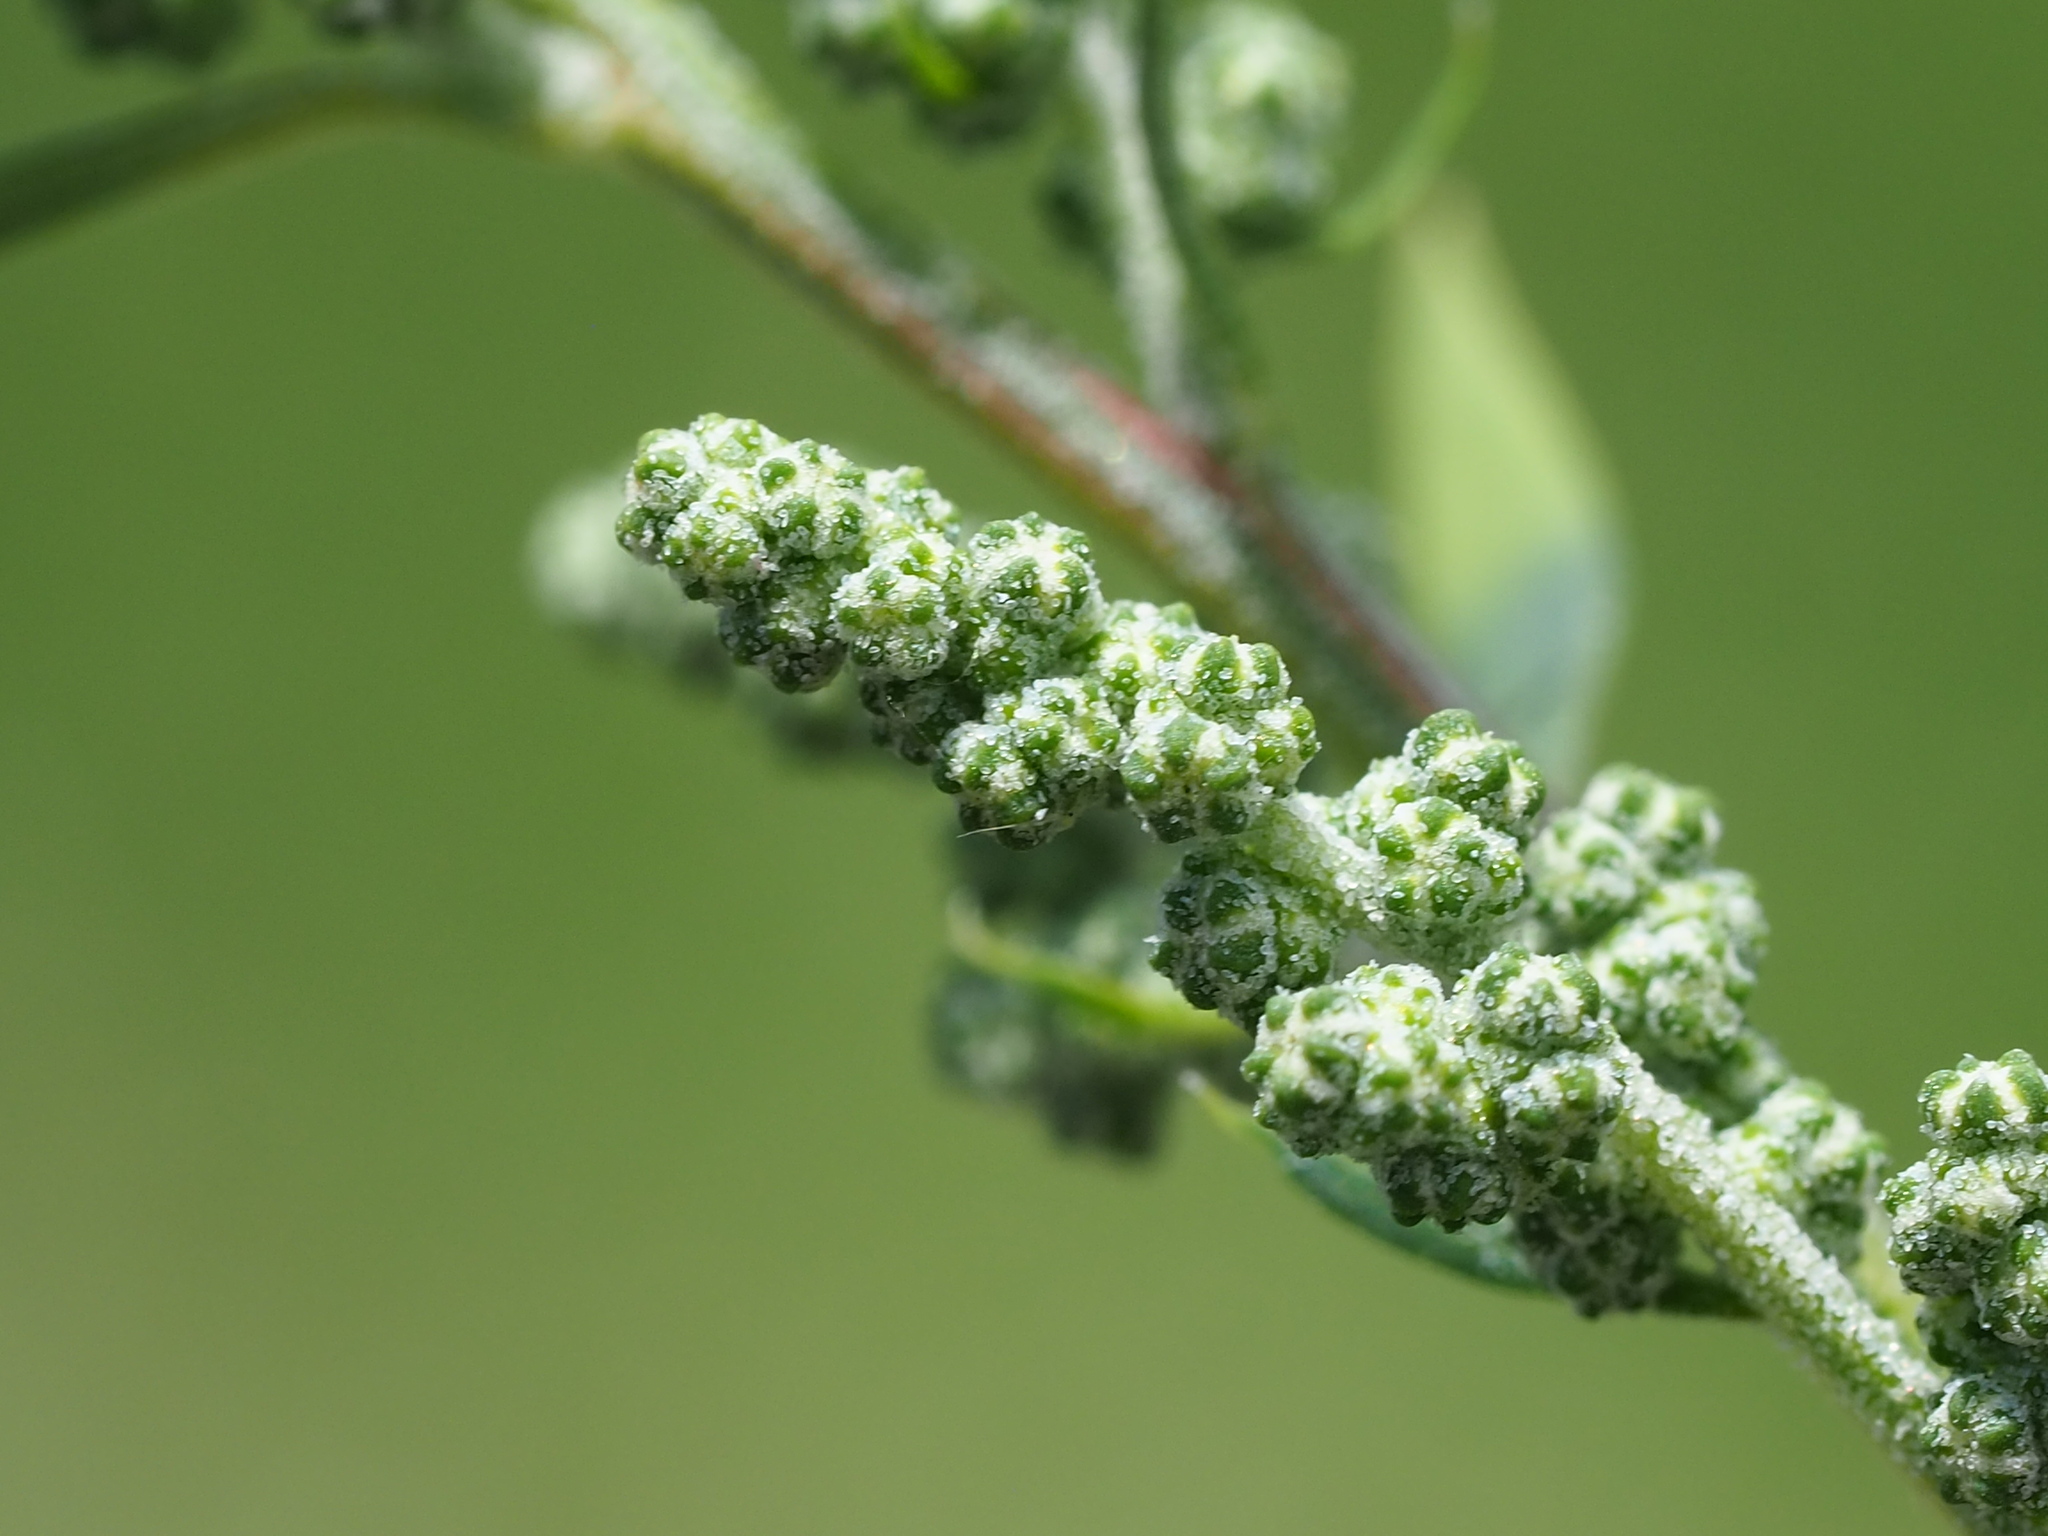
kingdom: Plantae
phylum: Tracheophyta
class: Magnoliopsida
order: Caryophyllales
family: Amaranthaceae
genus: Chenopodium
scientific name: Chenopodium album
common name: Fat-hen
